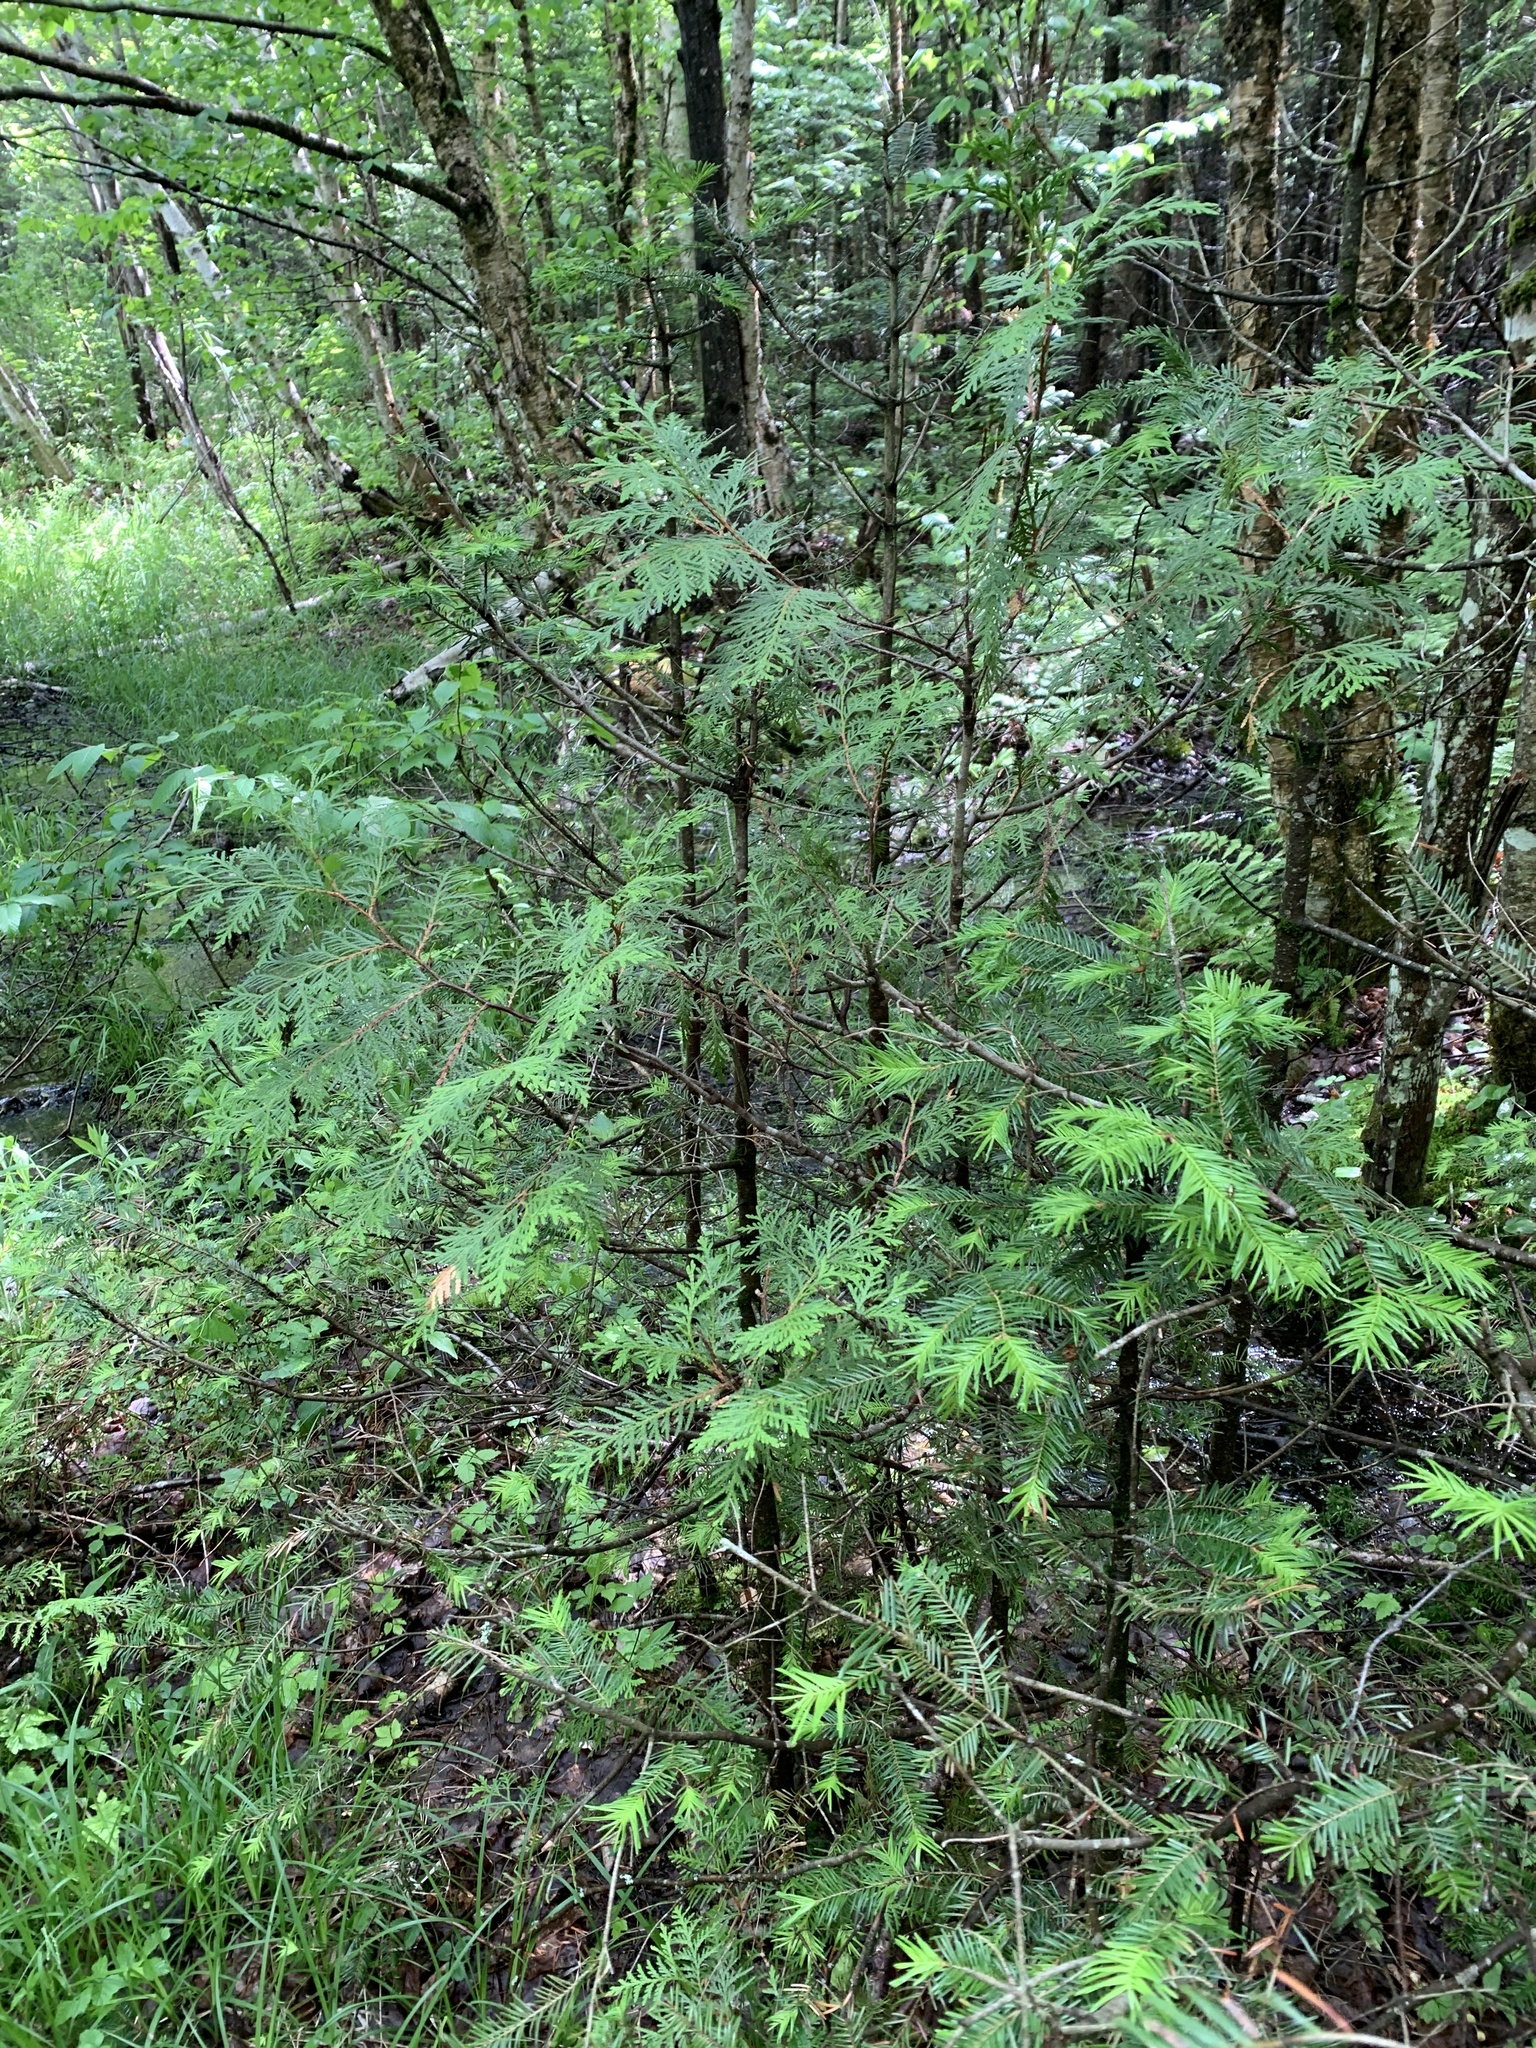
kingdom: Plantae
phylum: Tracheophyta
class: Pinopsida
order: Pinales
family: Cupressaceae
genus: Thuja
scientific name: Thuja occidentalis
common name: Northern white-cedar
